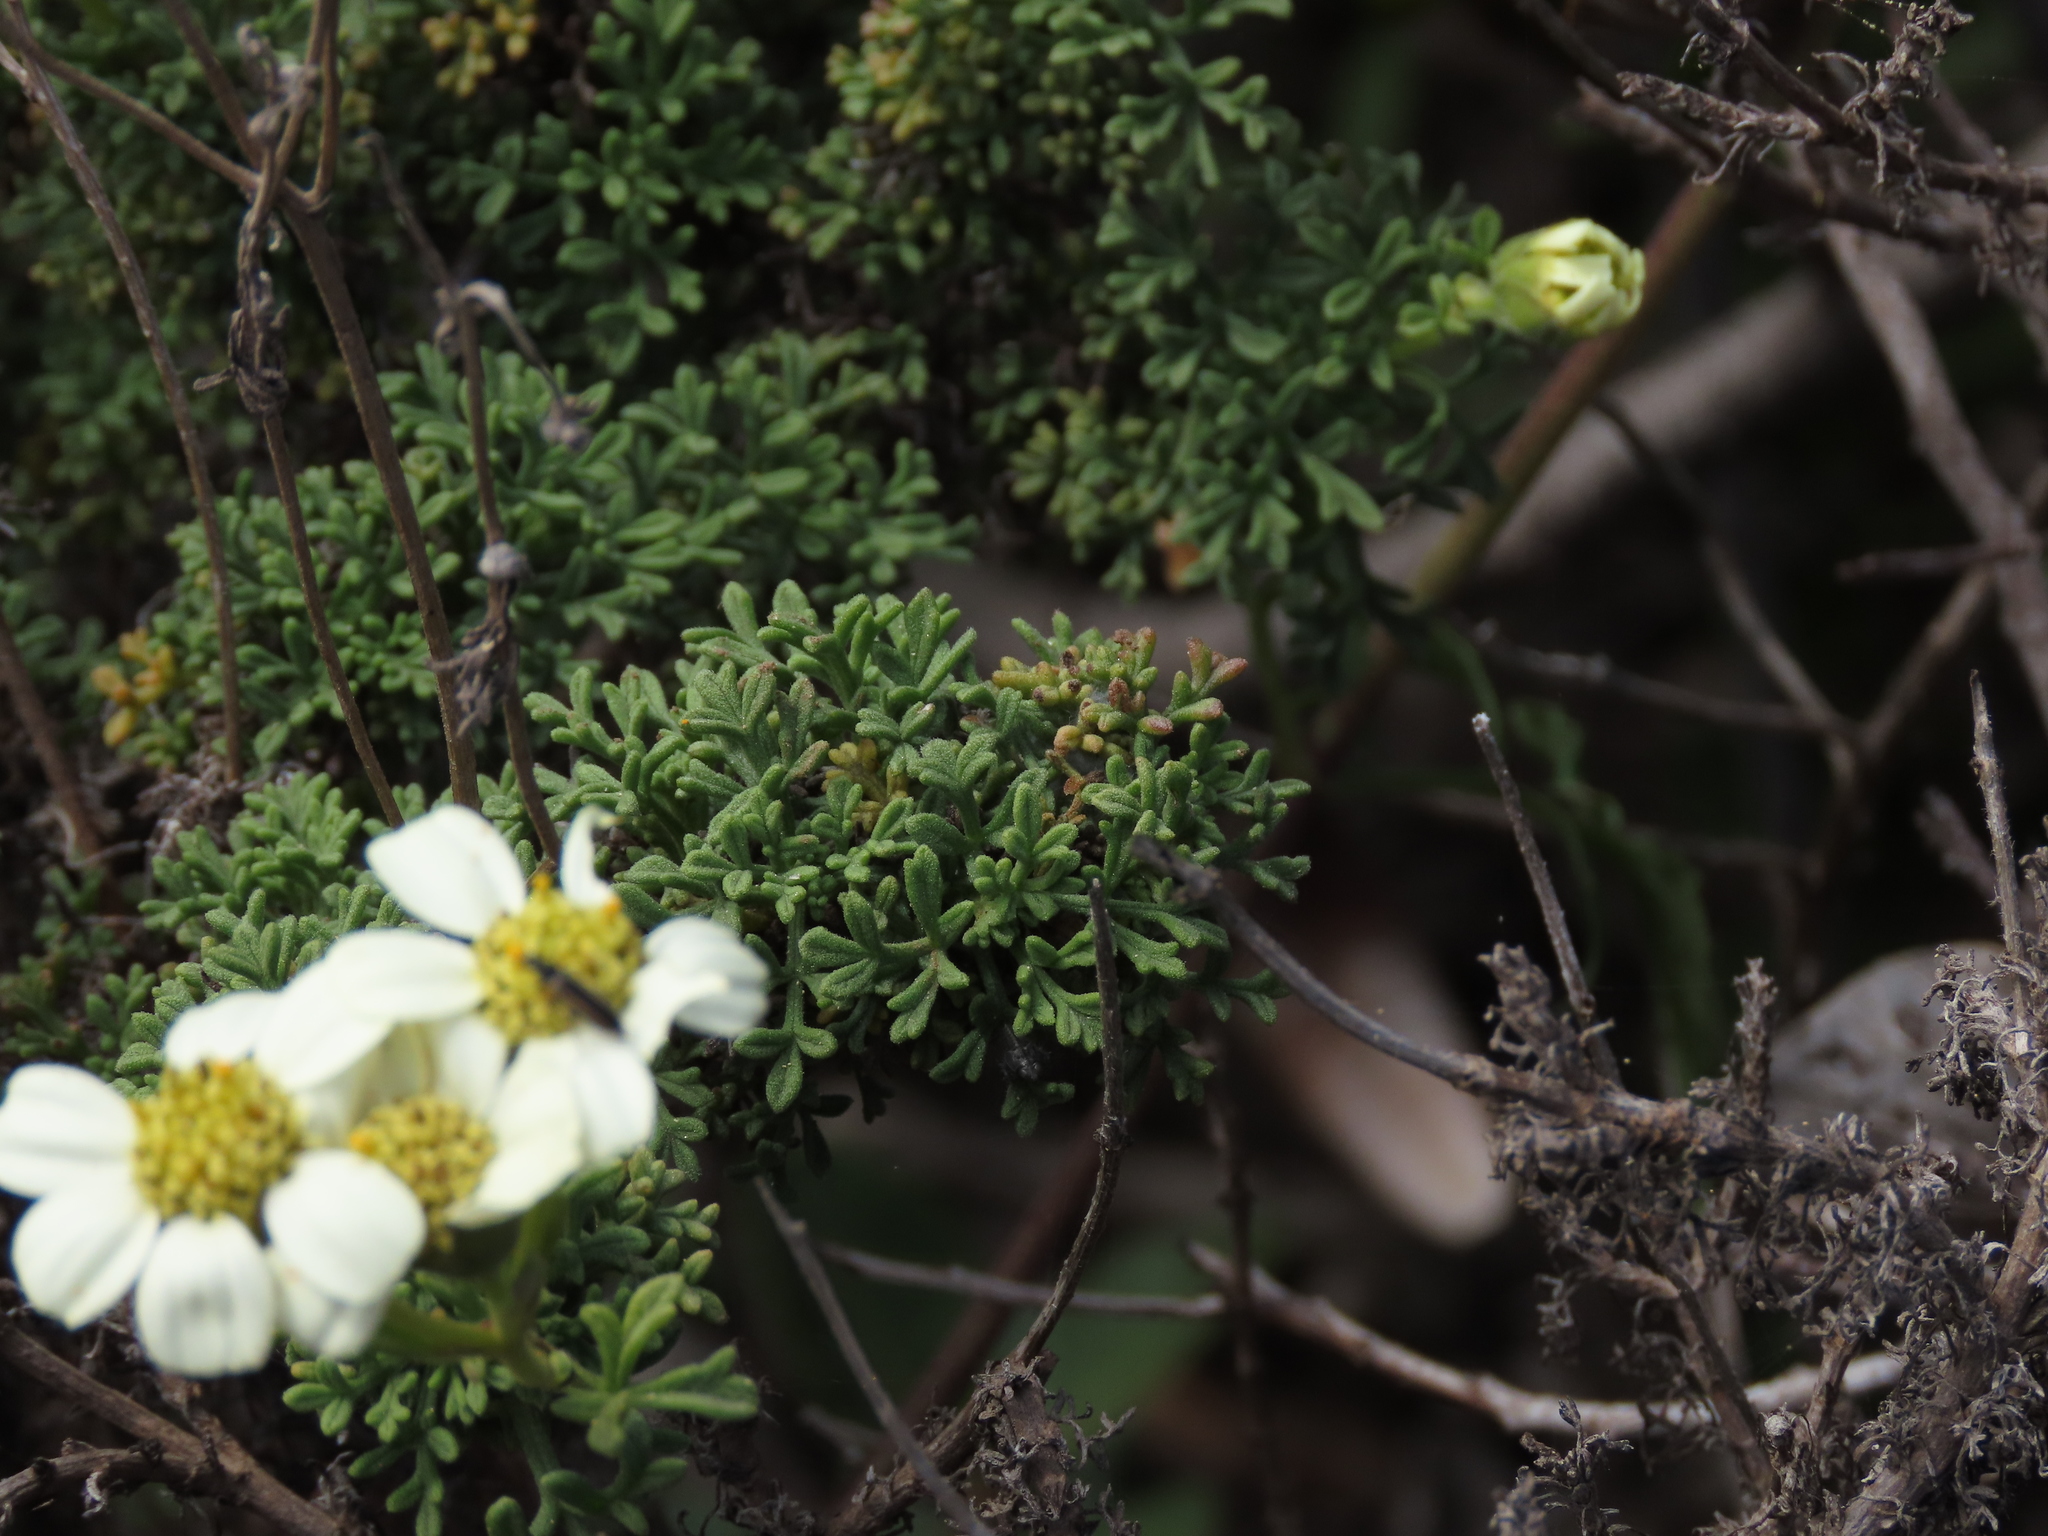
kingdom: Plantae
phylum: Tracheophyta
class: Magnoliopsida
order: Asterales
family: Asteraceae
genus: Bahia
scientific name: Bahia ambrosioides
